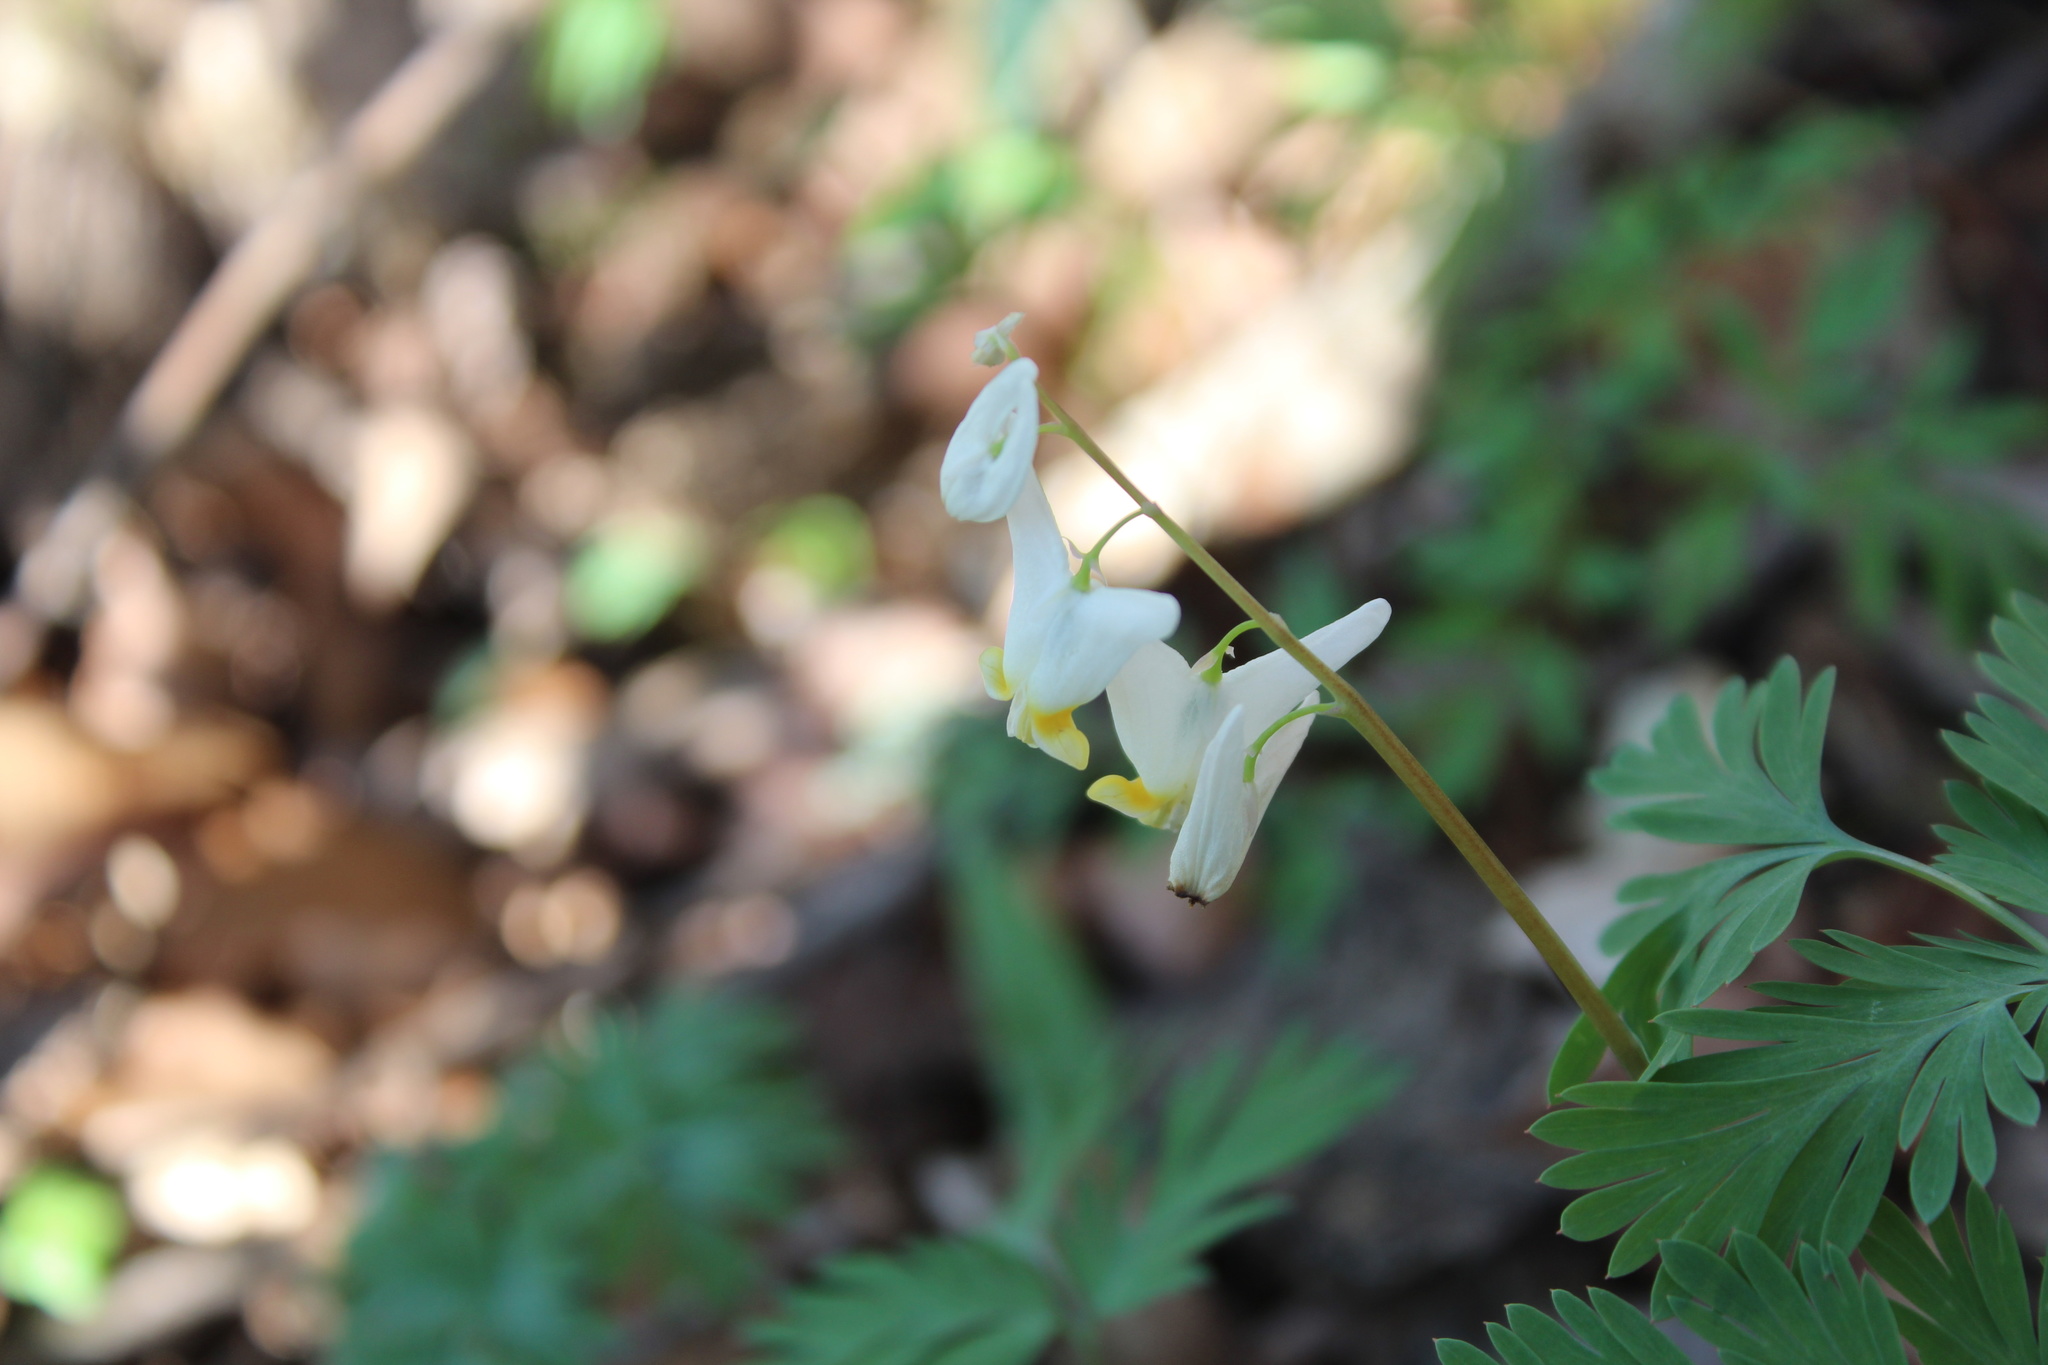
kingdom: Plantae
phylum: Tracheophyta
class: Magnoliopsida
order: Ranunculales
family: Papaveraceae
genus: Dicentra
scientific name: Dicentra cucullaria
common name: Dutchman's breeches
